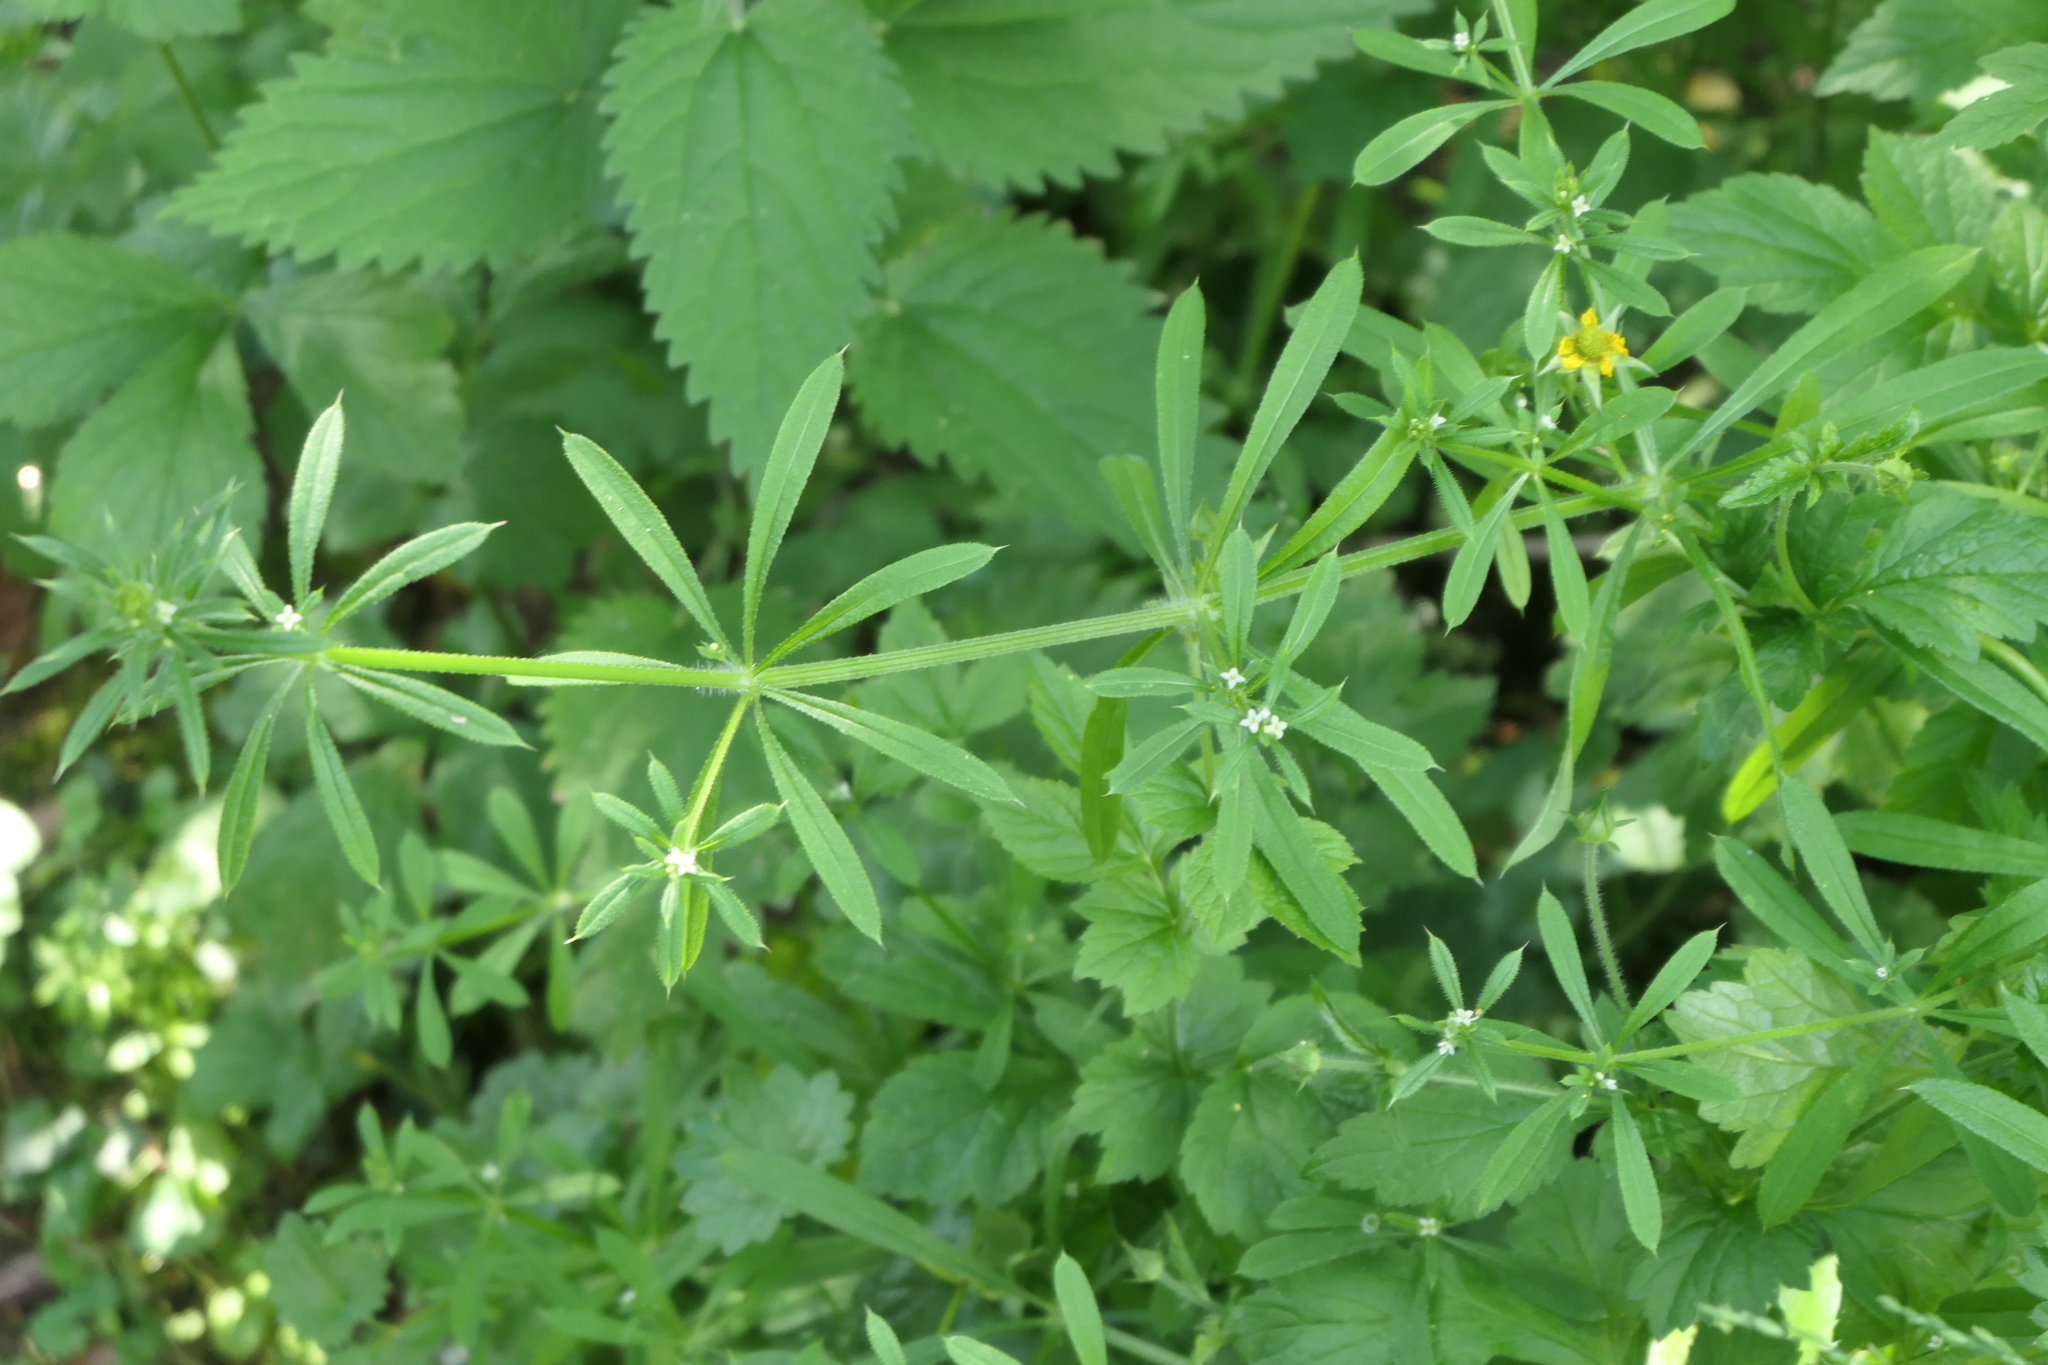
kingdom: Plantae
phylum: Tracheophyta
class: Magnoliopsida
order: Gentianales
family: Rubiaceae
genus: Galium
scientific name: Galium aparine
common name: Cleavers
